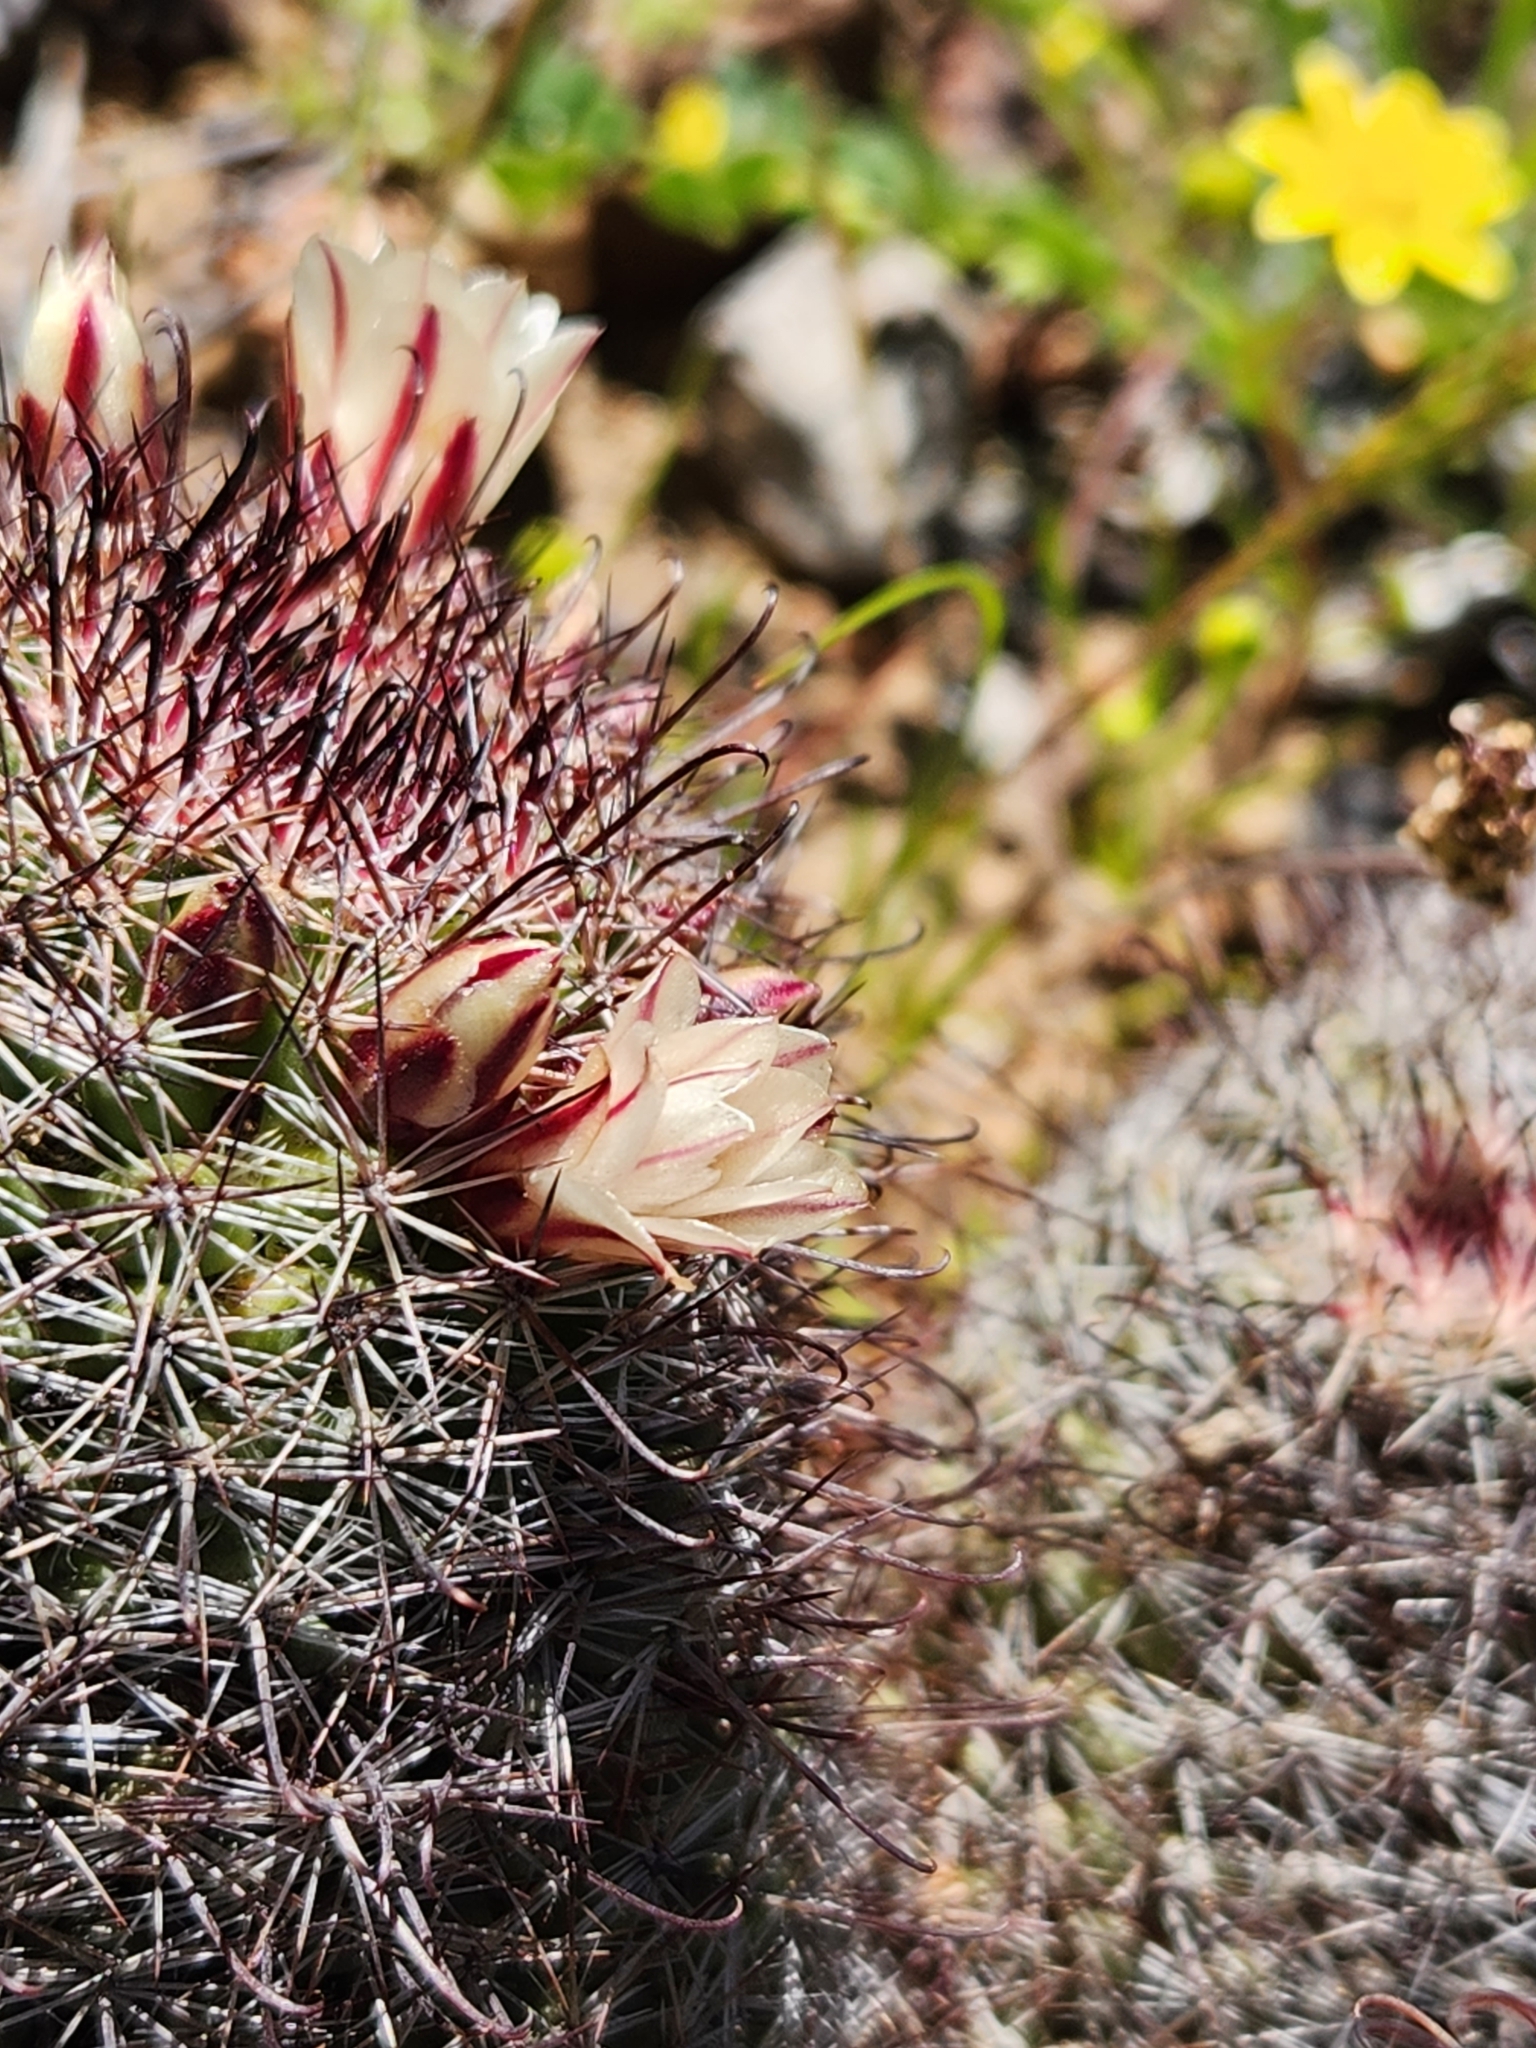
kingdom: Plantae
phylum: Tracheophyta
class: Magnoliopsida
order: Caryophyllales
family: Cactaceae
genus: Cochemiea
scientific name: Cochemiea dioica
